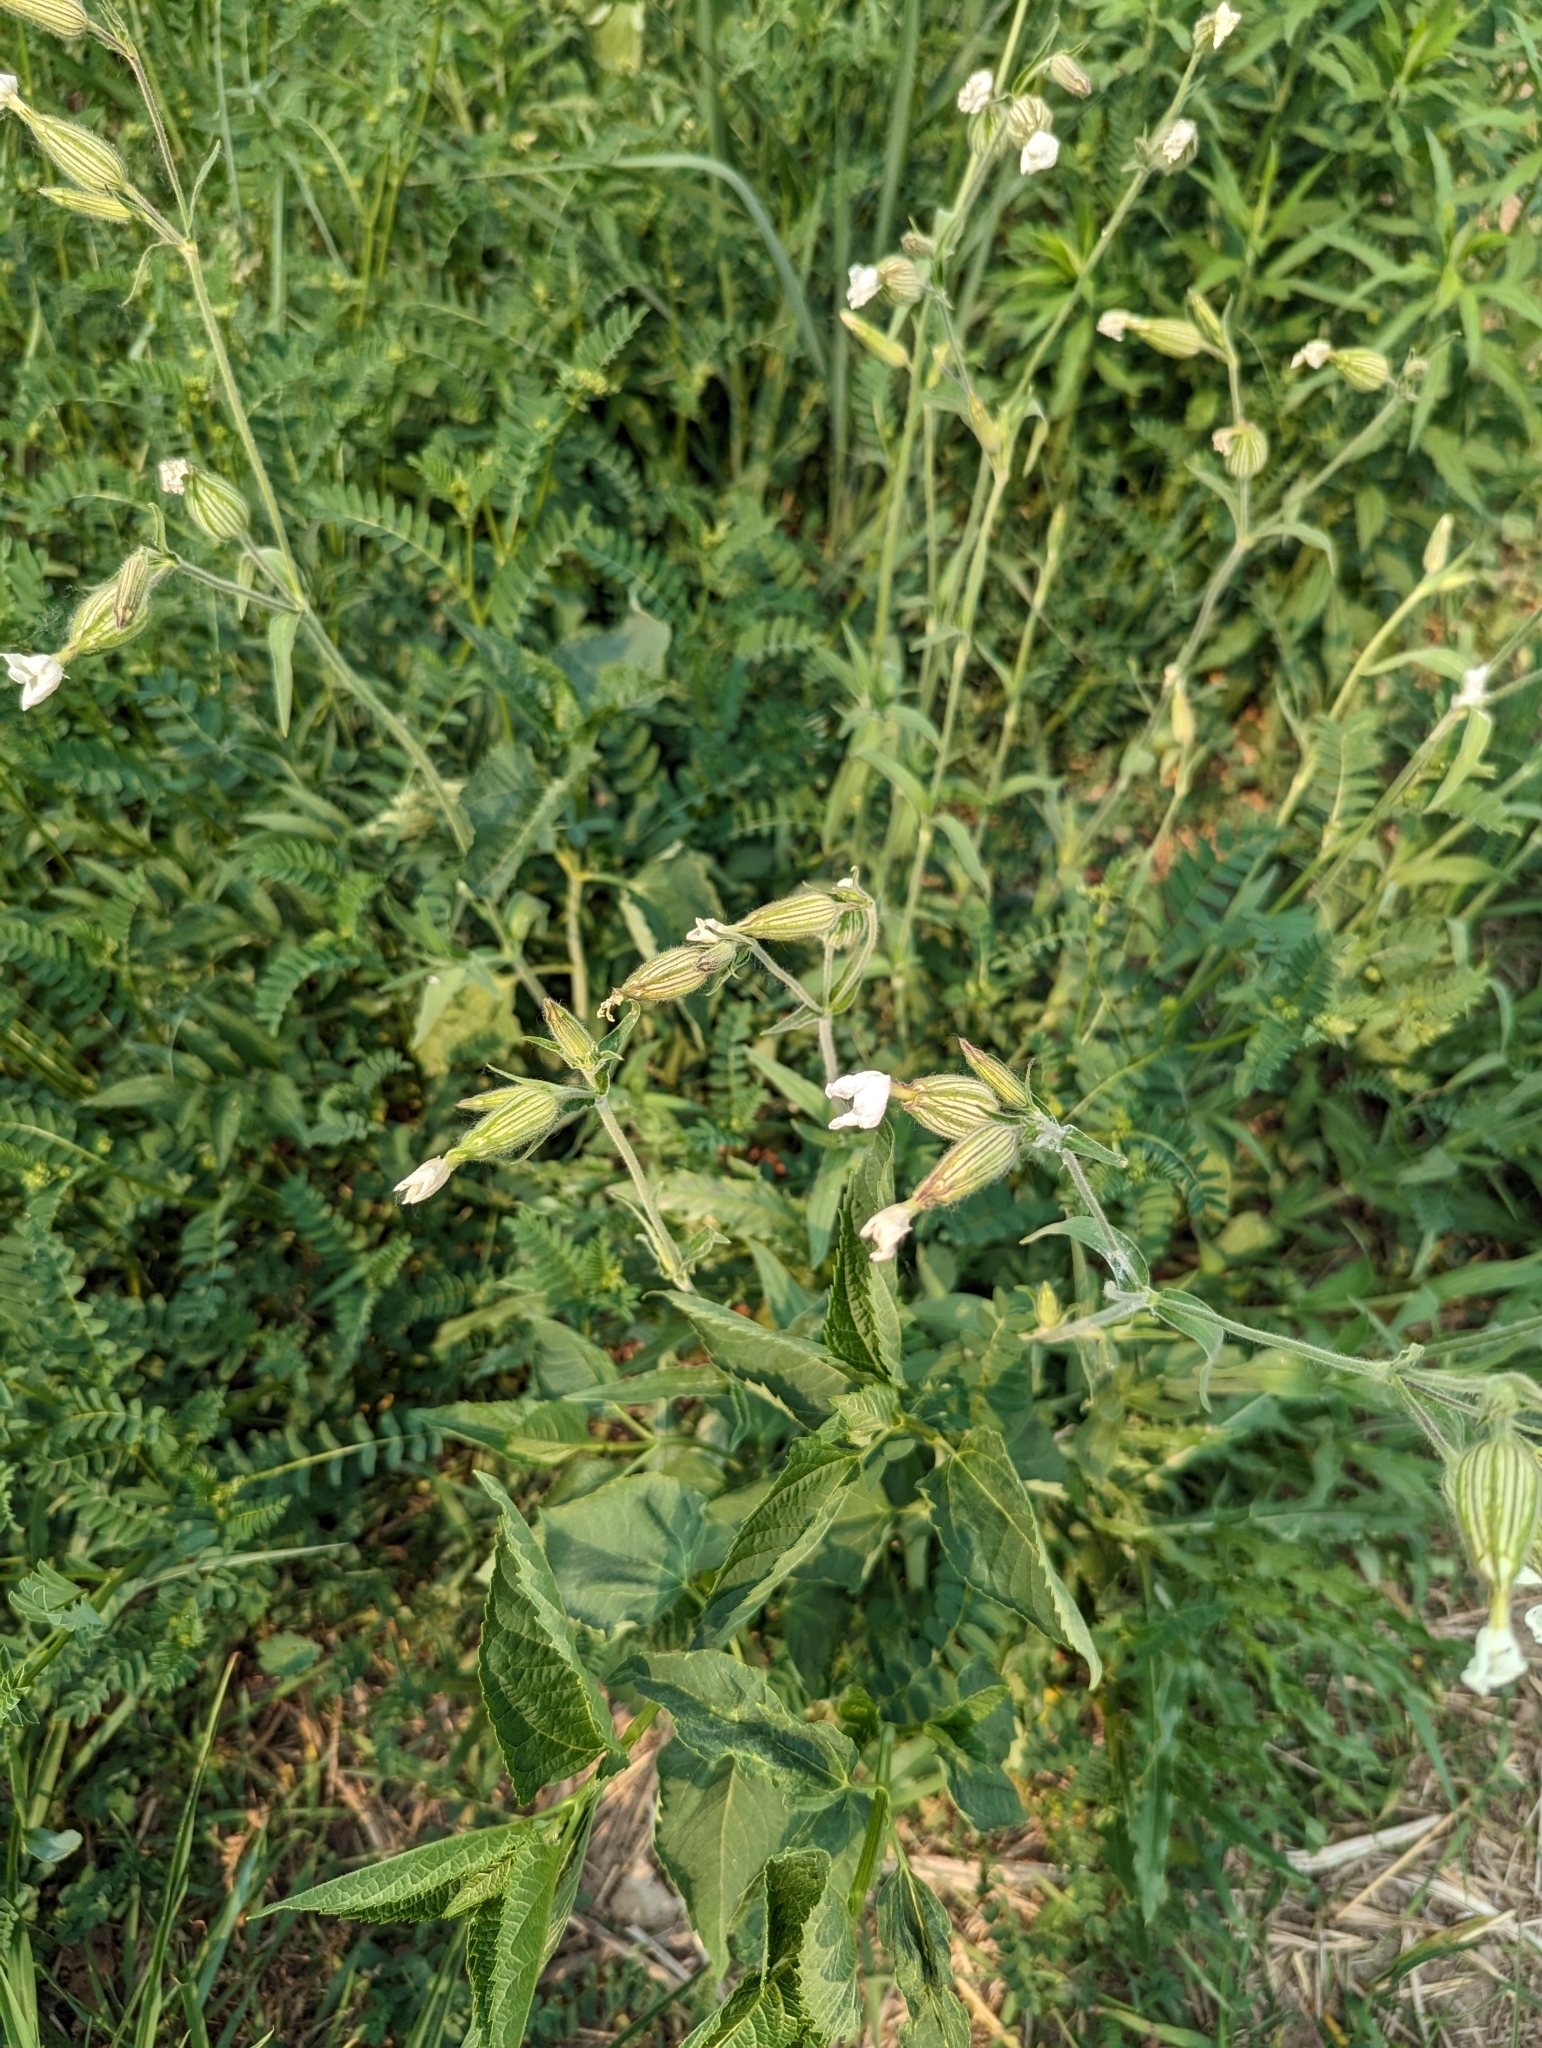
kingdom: Plantae
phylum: Tracheophyta
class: Magnoliopsida
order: Caryophyllales
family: Caryophyllaceae
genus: Silene
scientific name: Silene latifolia
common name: White campion
